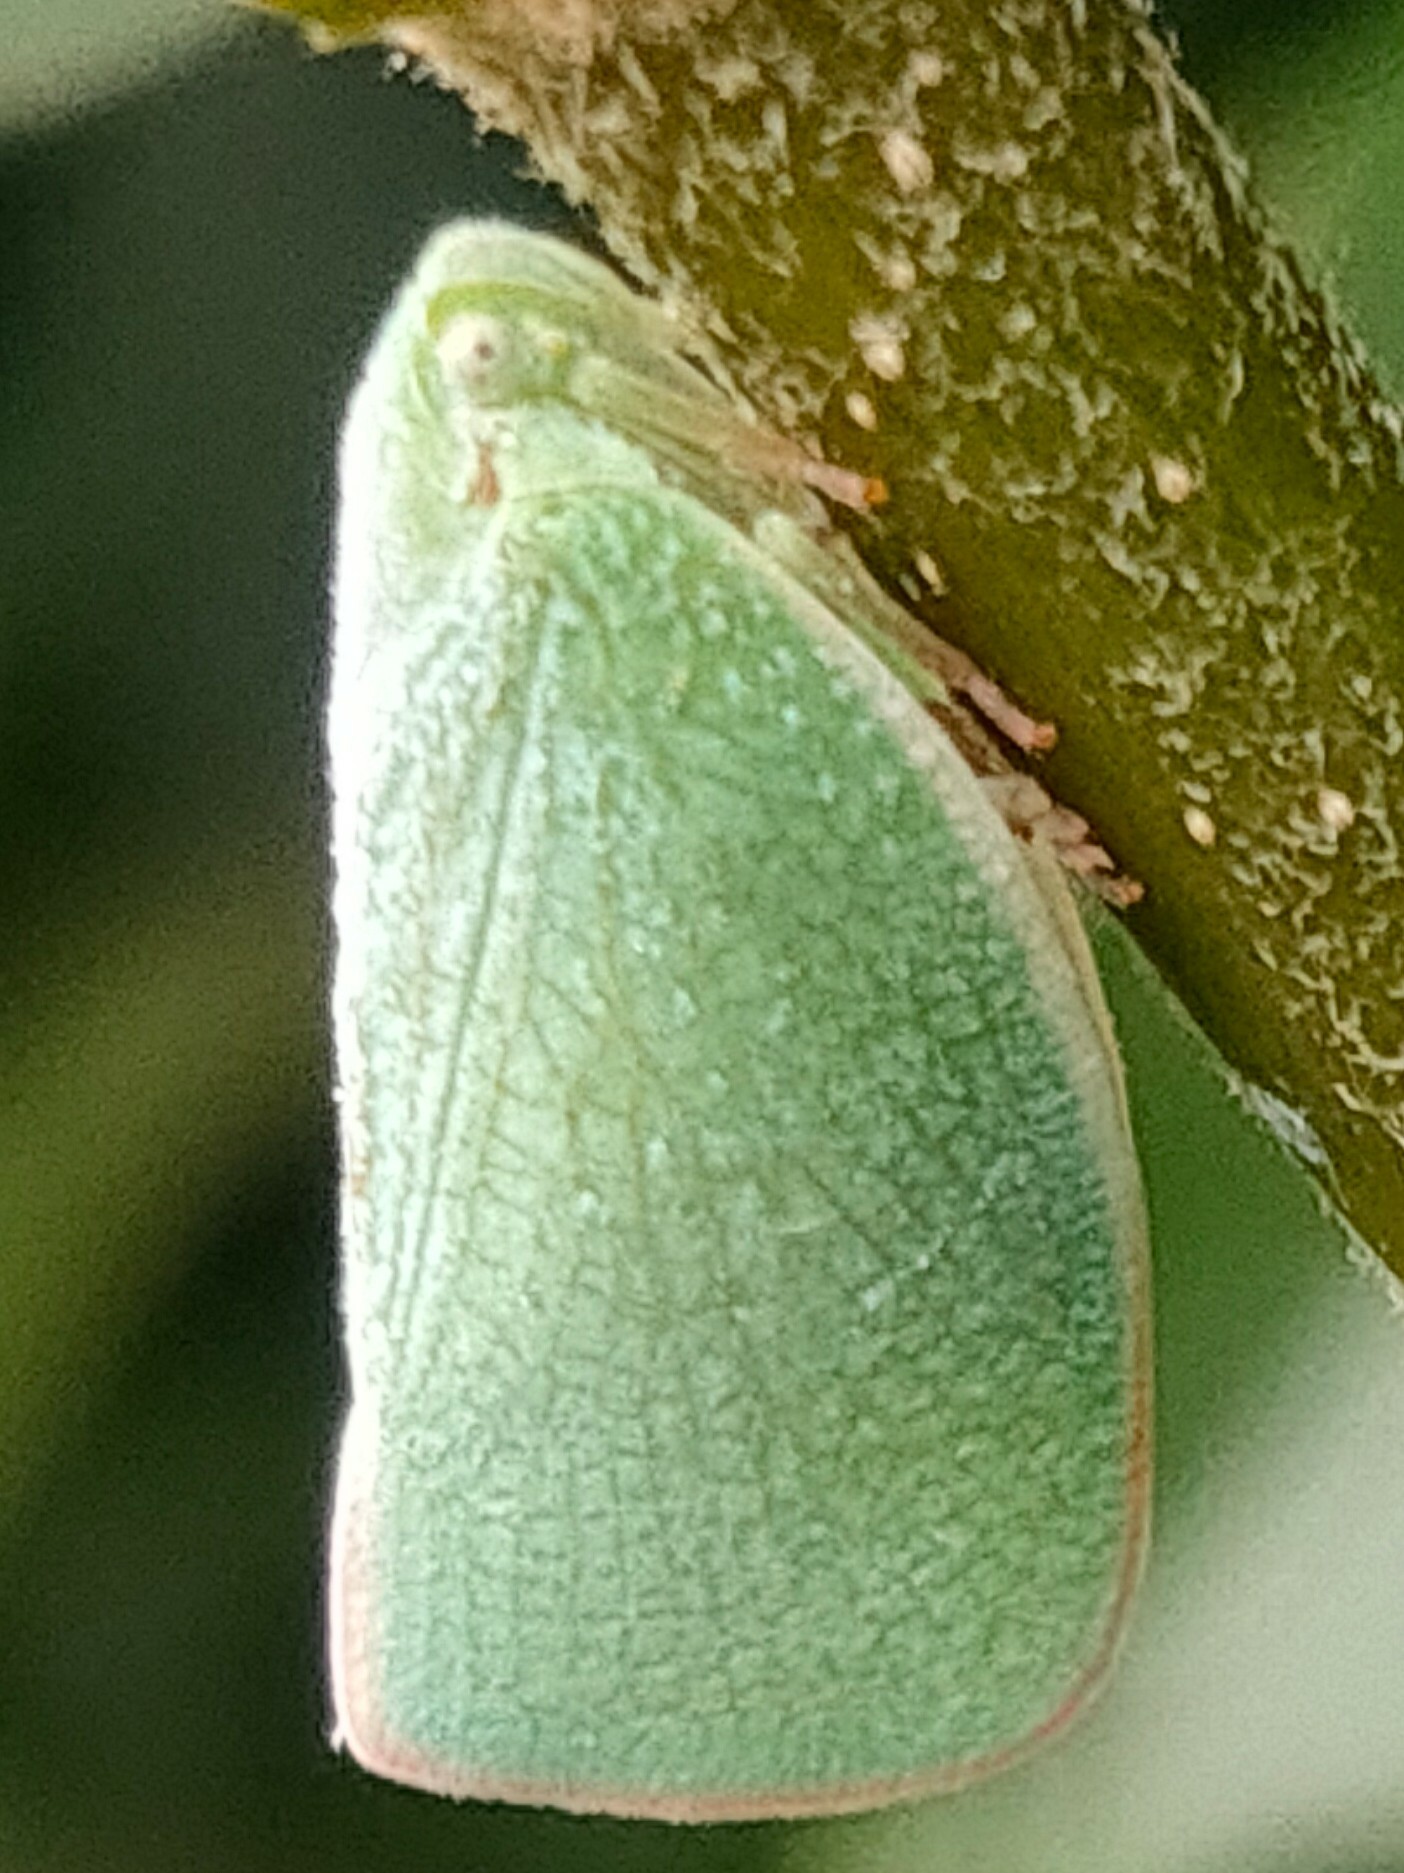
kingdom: Animalia
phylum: Arthropoda
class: Insecta
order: Hemiptera
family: Flatidae
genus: Geisha
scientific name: Geisha distinctissima
